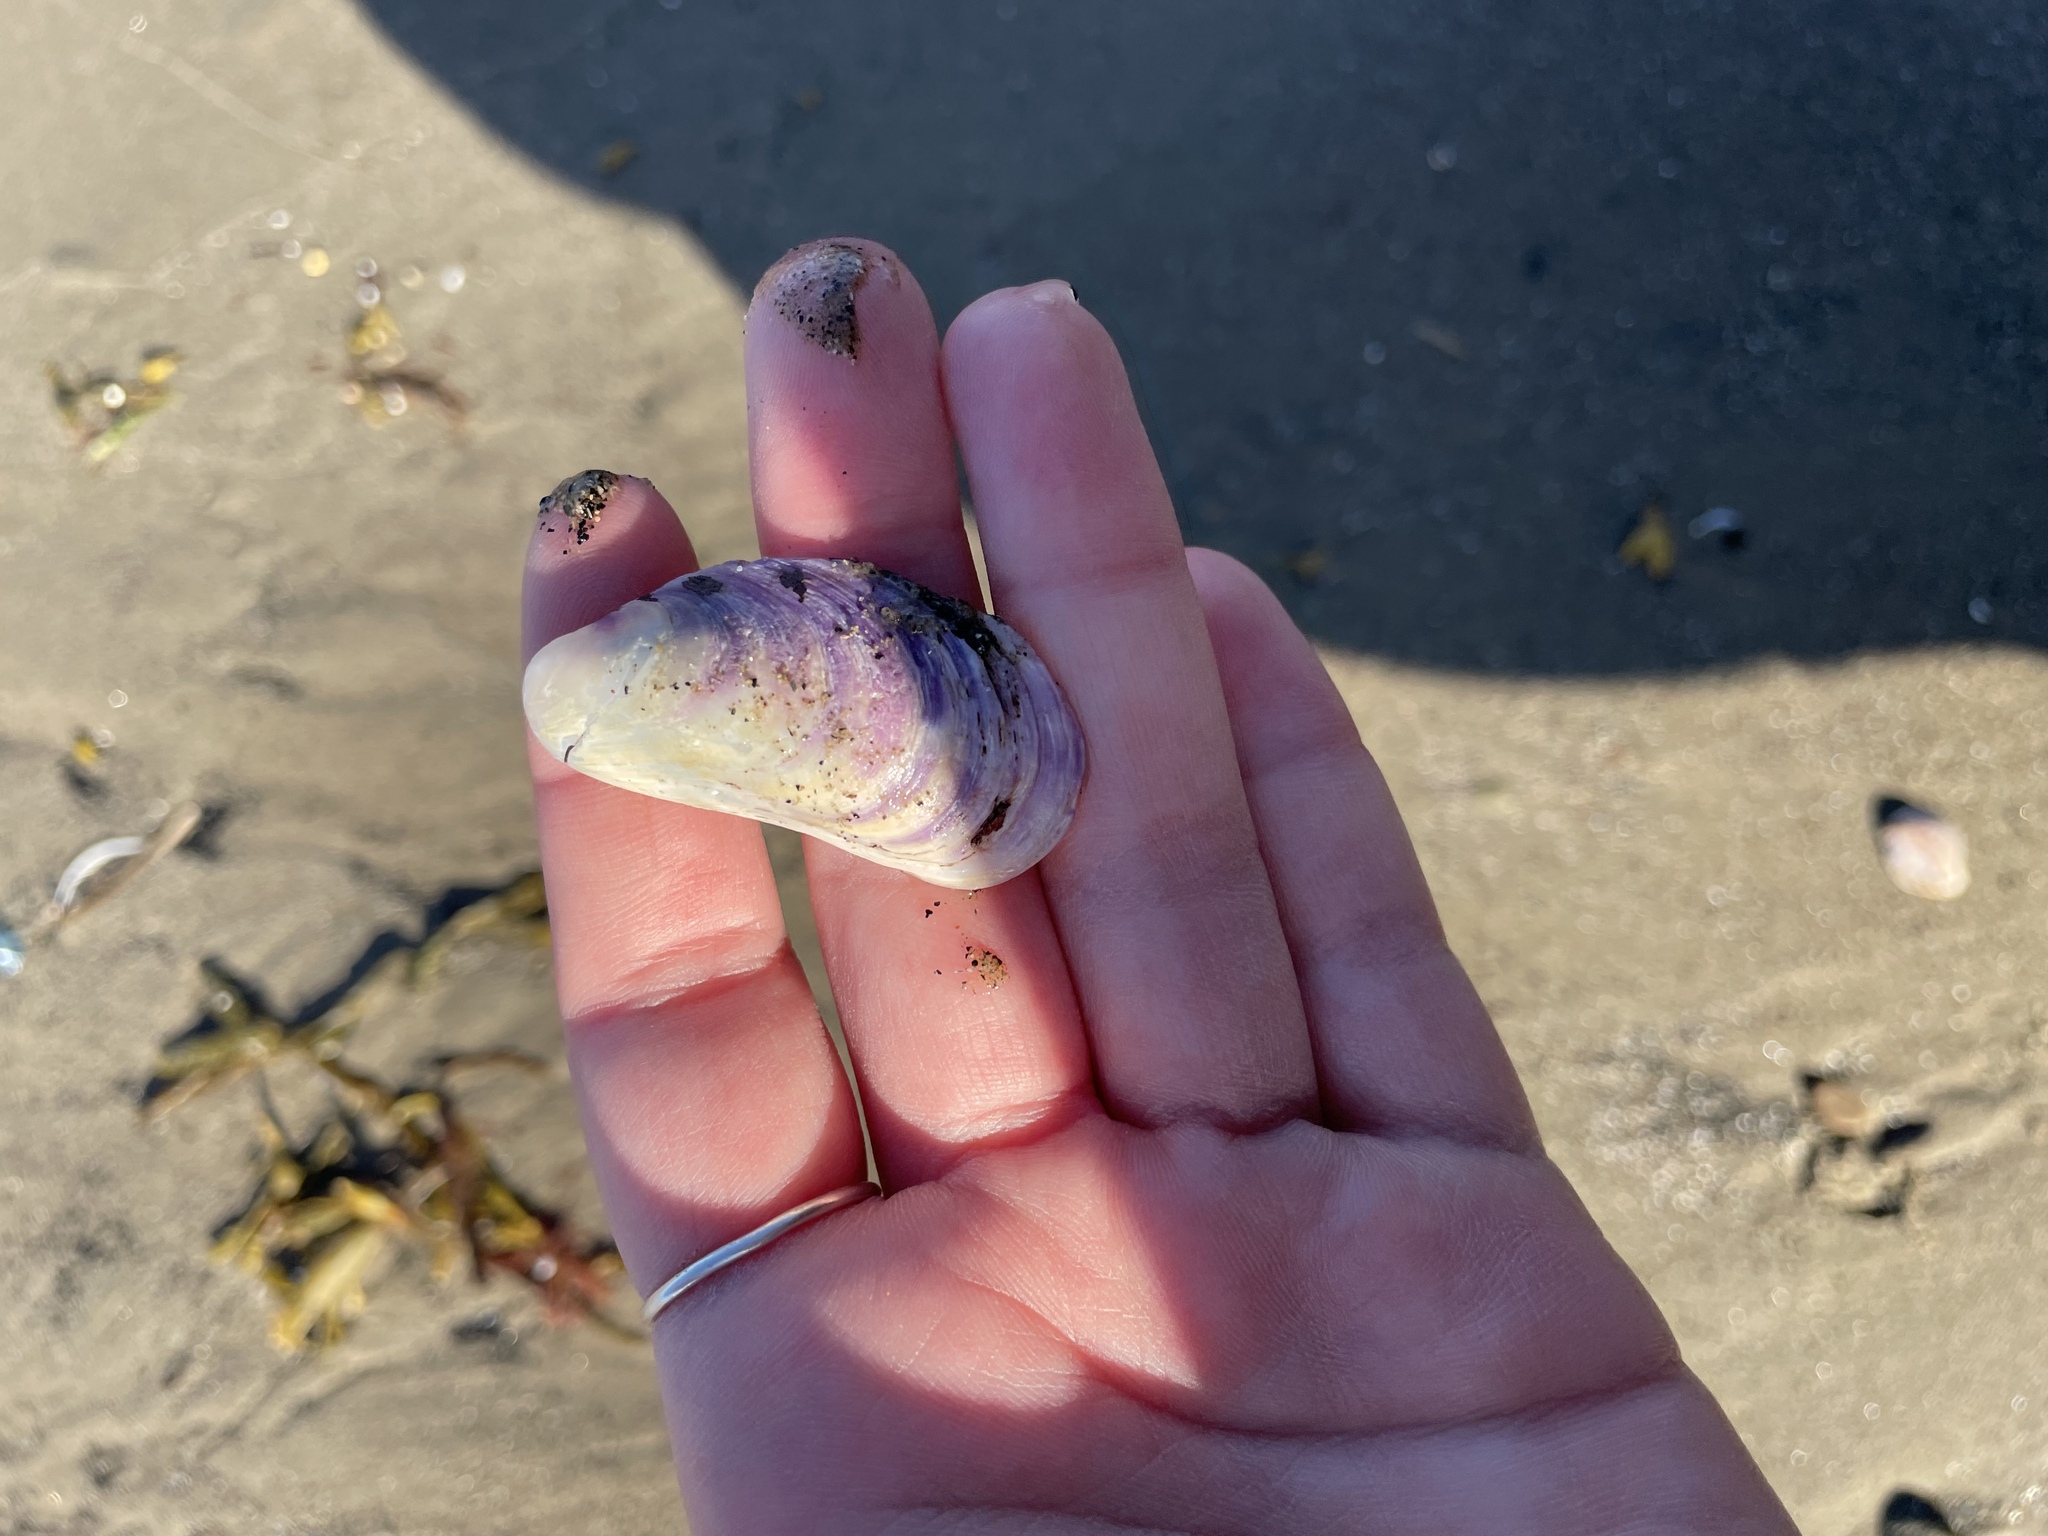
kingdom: Animalia
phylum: Mollusca
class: Bivalvia
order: Mytilida
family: Mytilidae
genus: Modiolus
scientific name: Modiolus modiolus
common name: Horse-mussel
